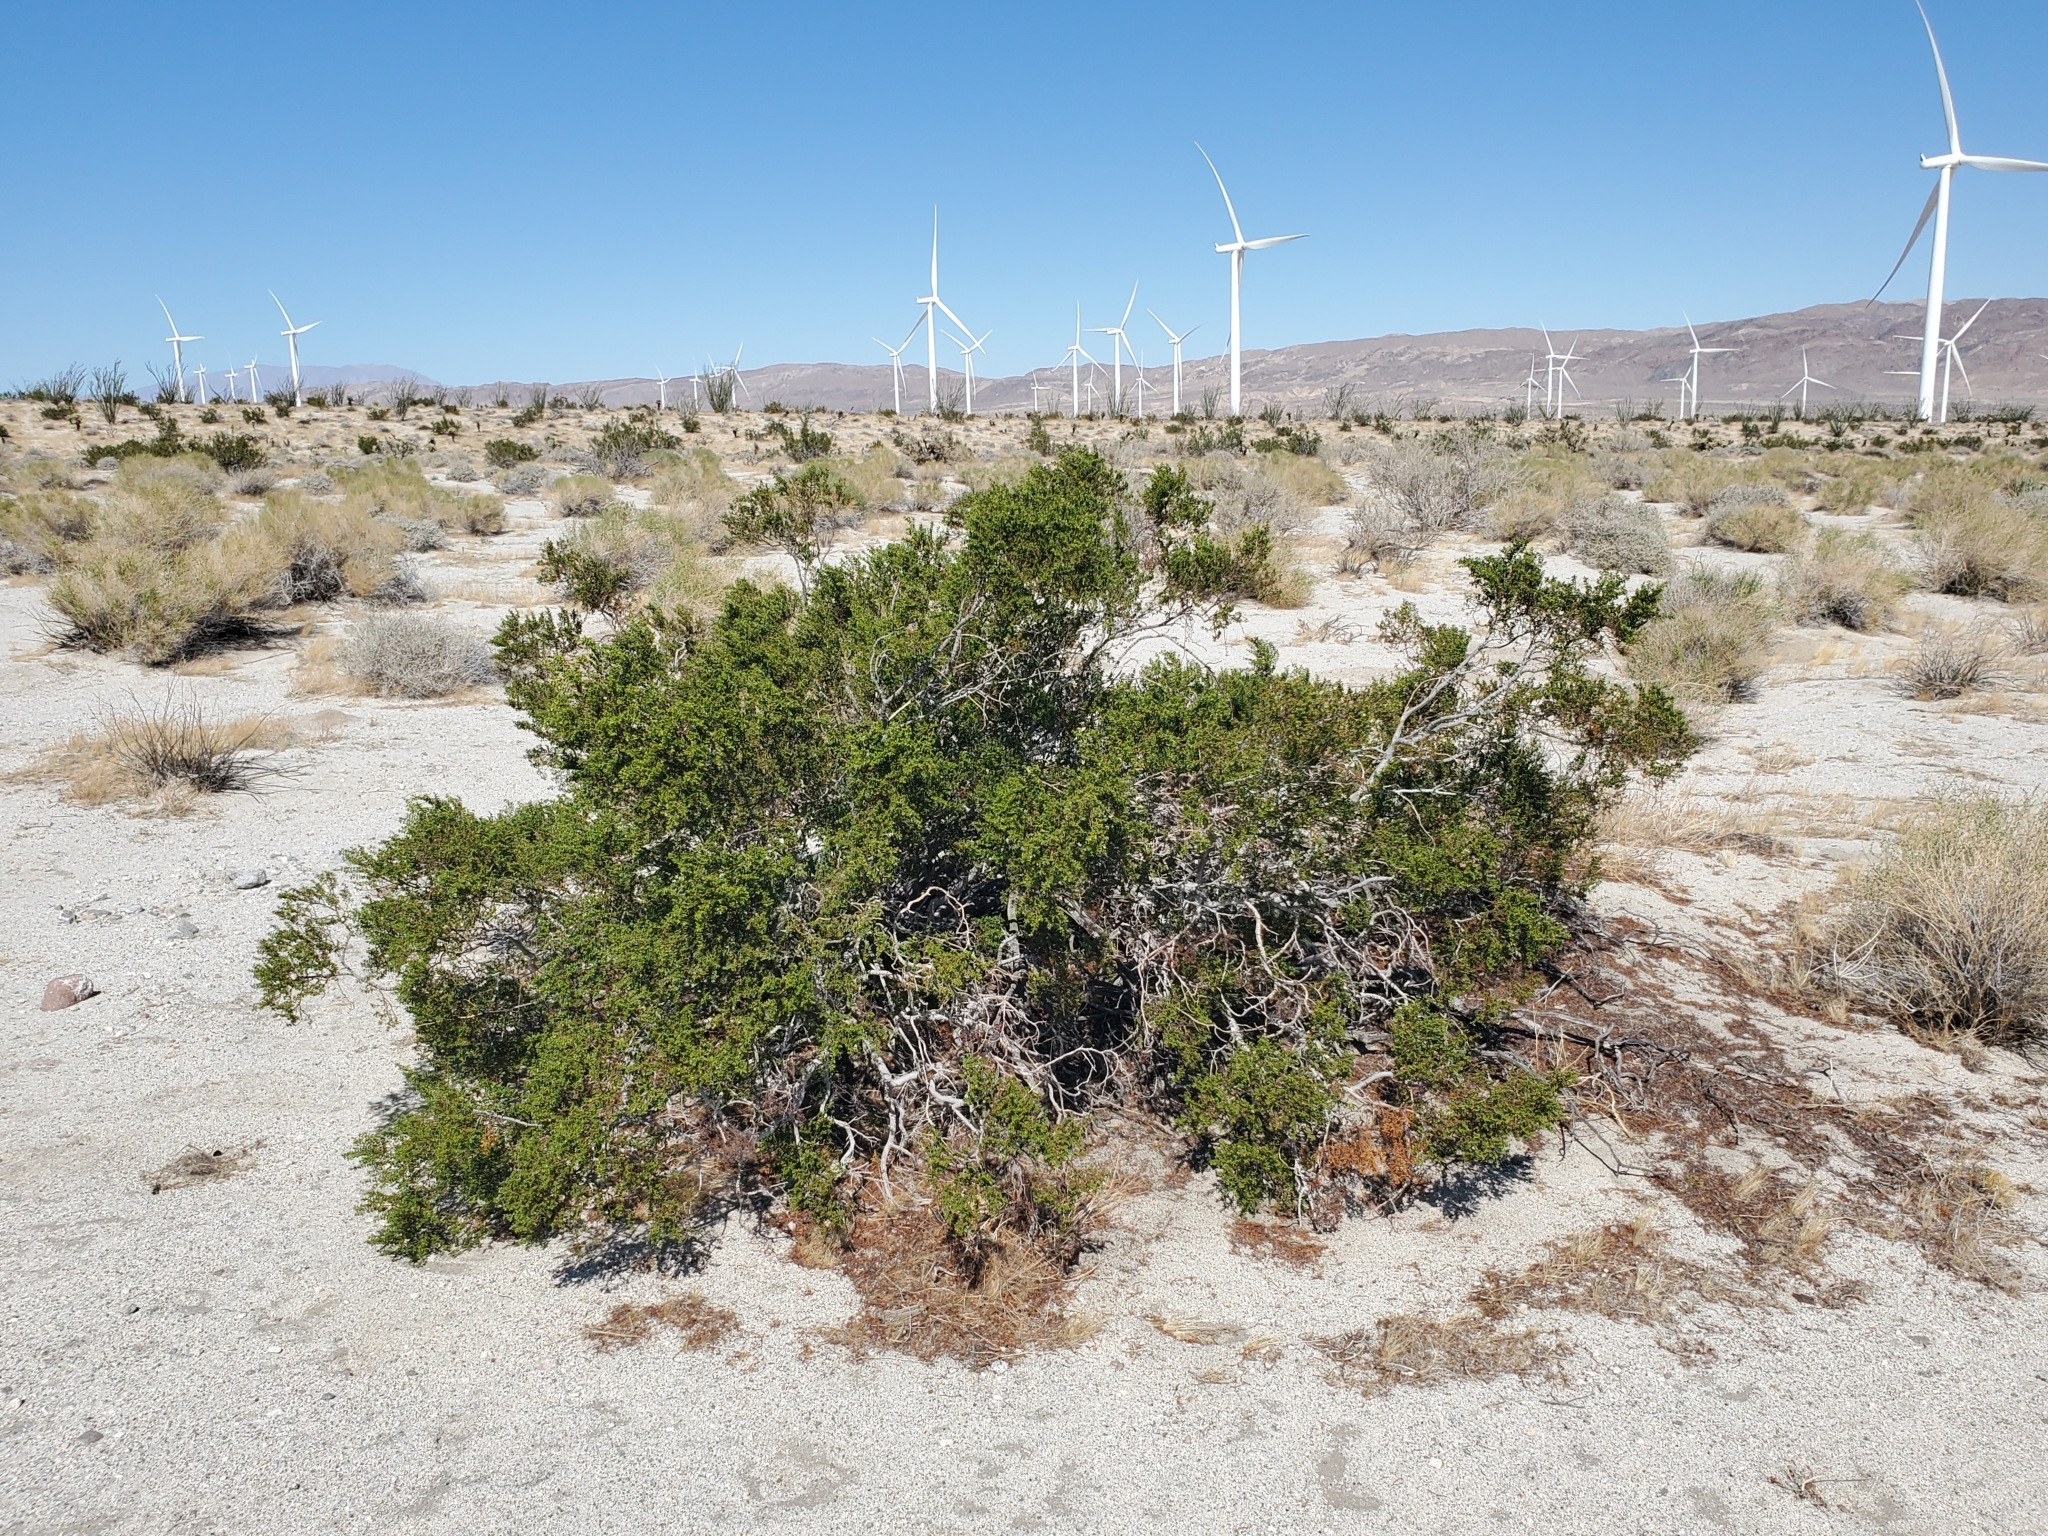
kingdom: Plantae
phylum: Tracheophyta
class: Magnoliopsida
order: Zygophyllales
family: Zygophyllaceae
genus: Larrea
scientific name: Larrea tridentata
